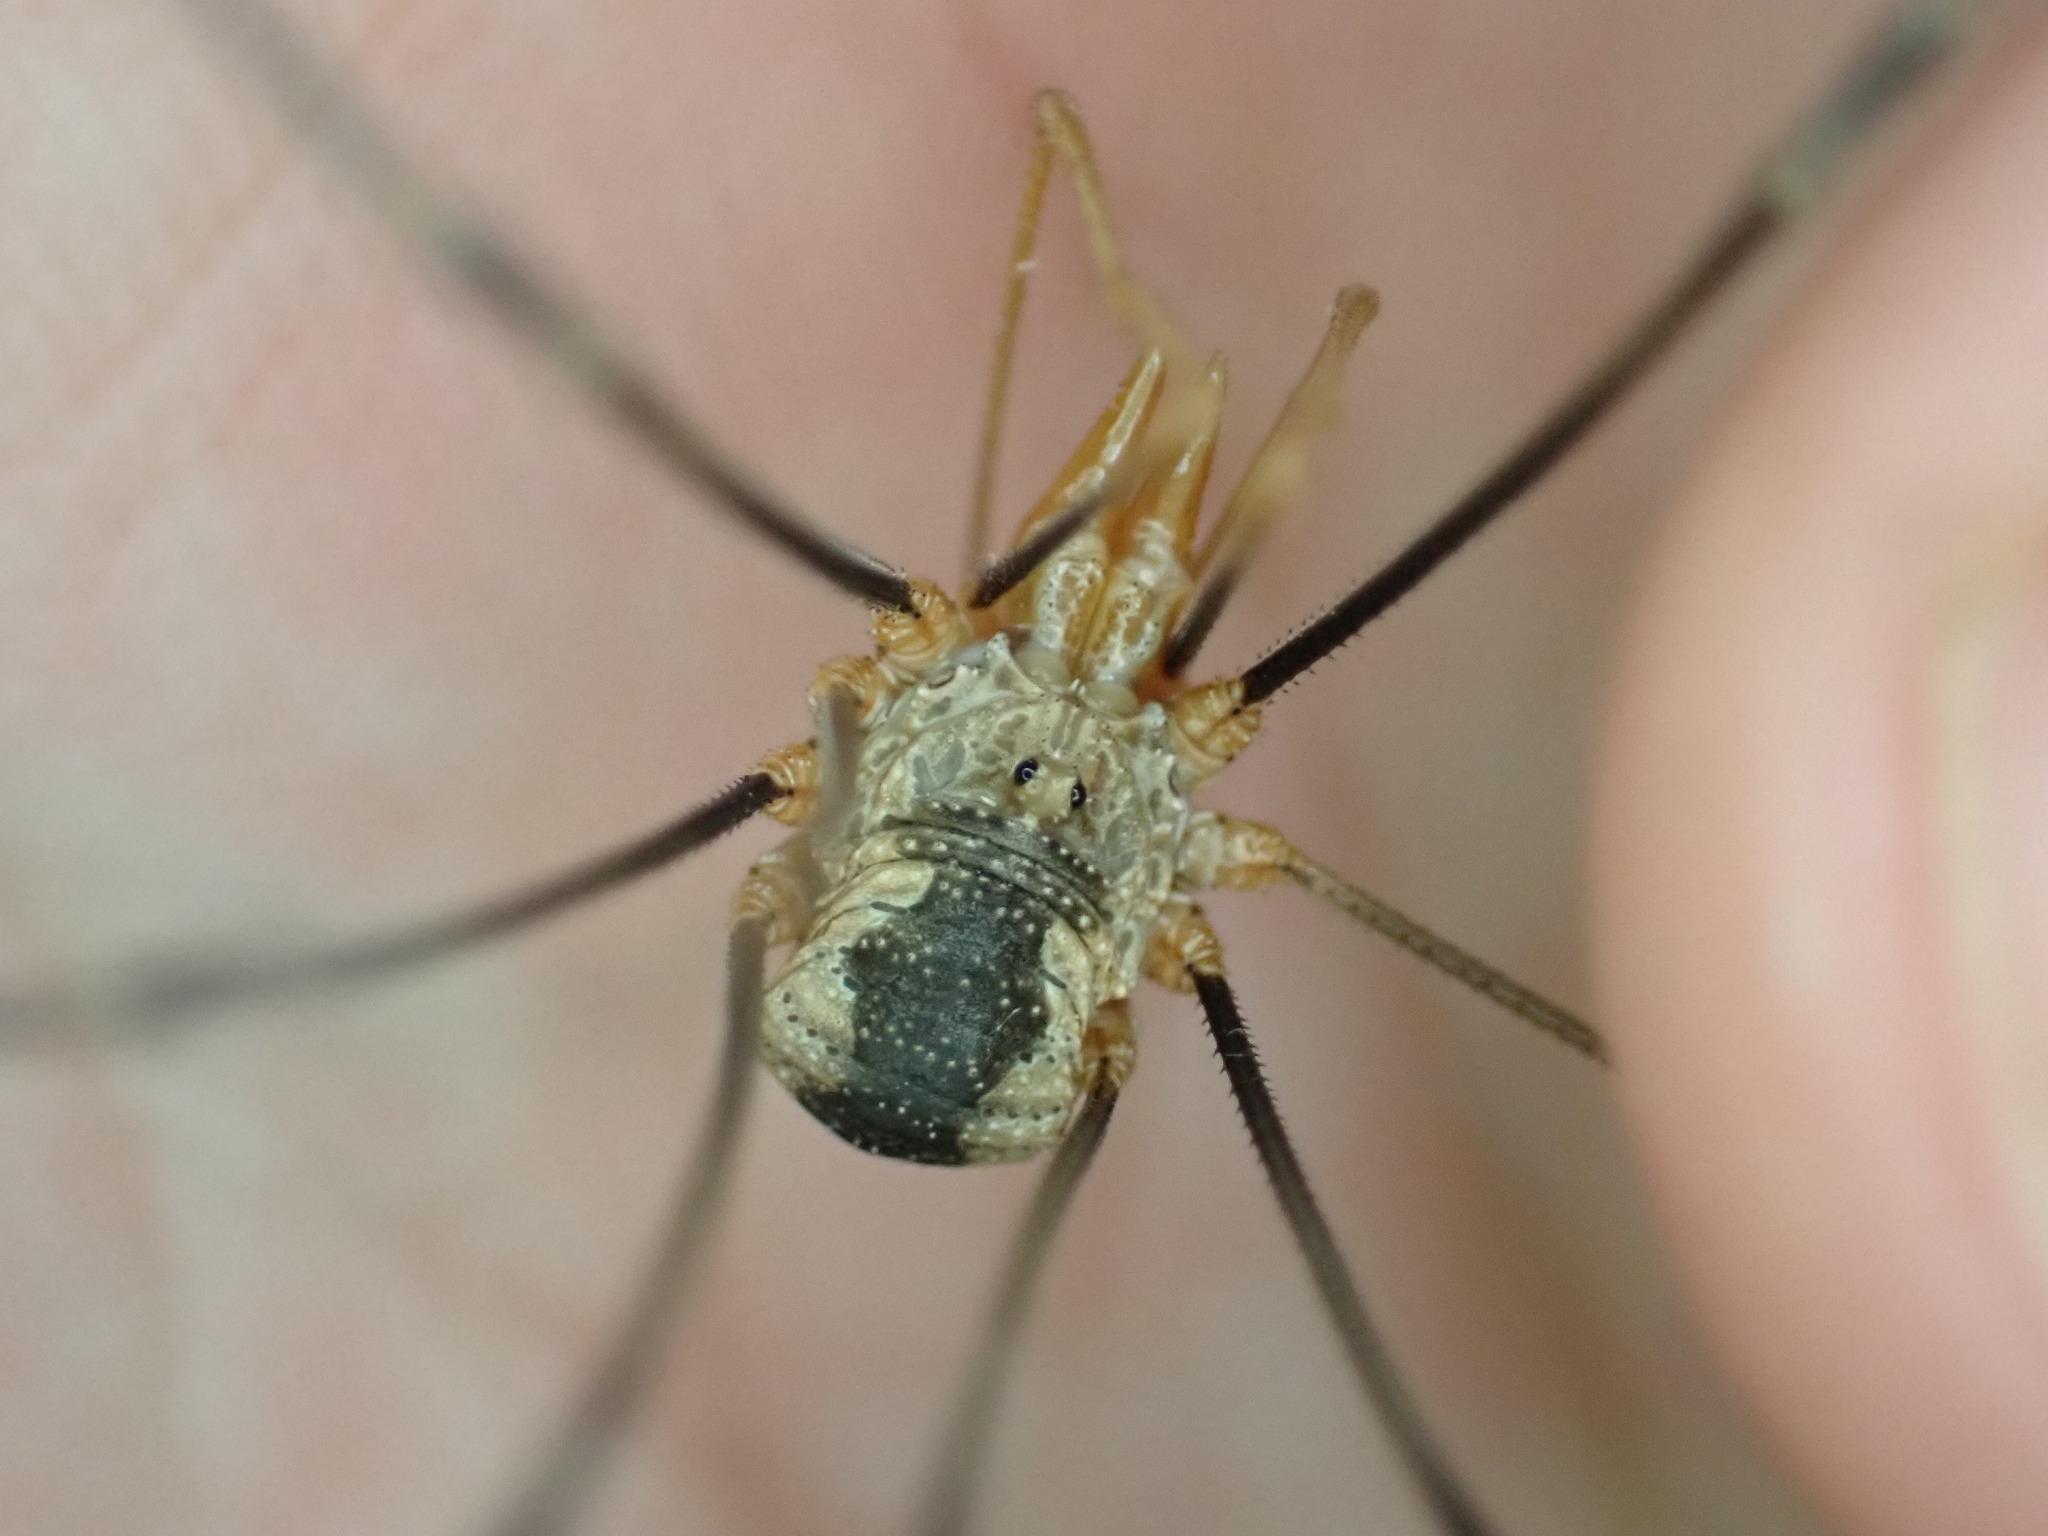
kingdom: Animalia
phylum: Arthropoda
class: Arachnida
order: Opiliones
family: Phalangiidae
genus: Phalangium
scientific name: Phalangium opilio
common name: Daddy longleg
